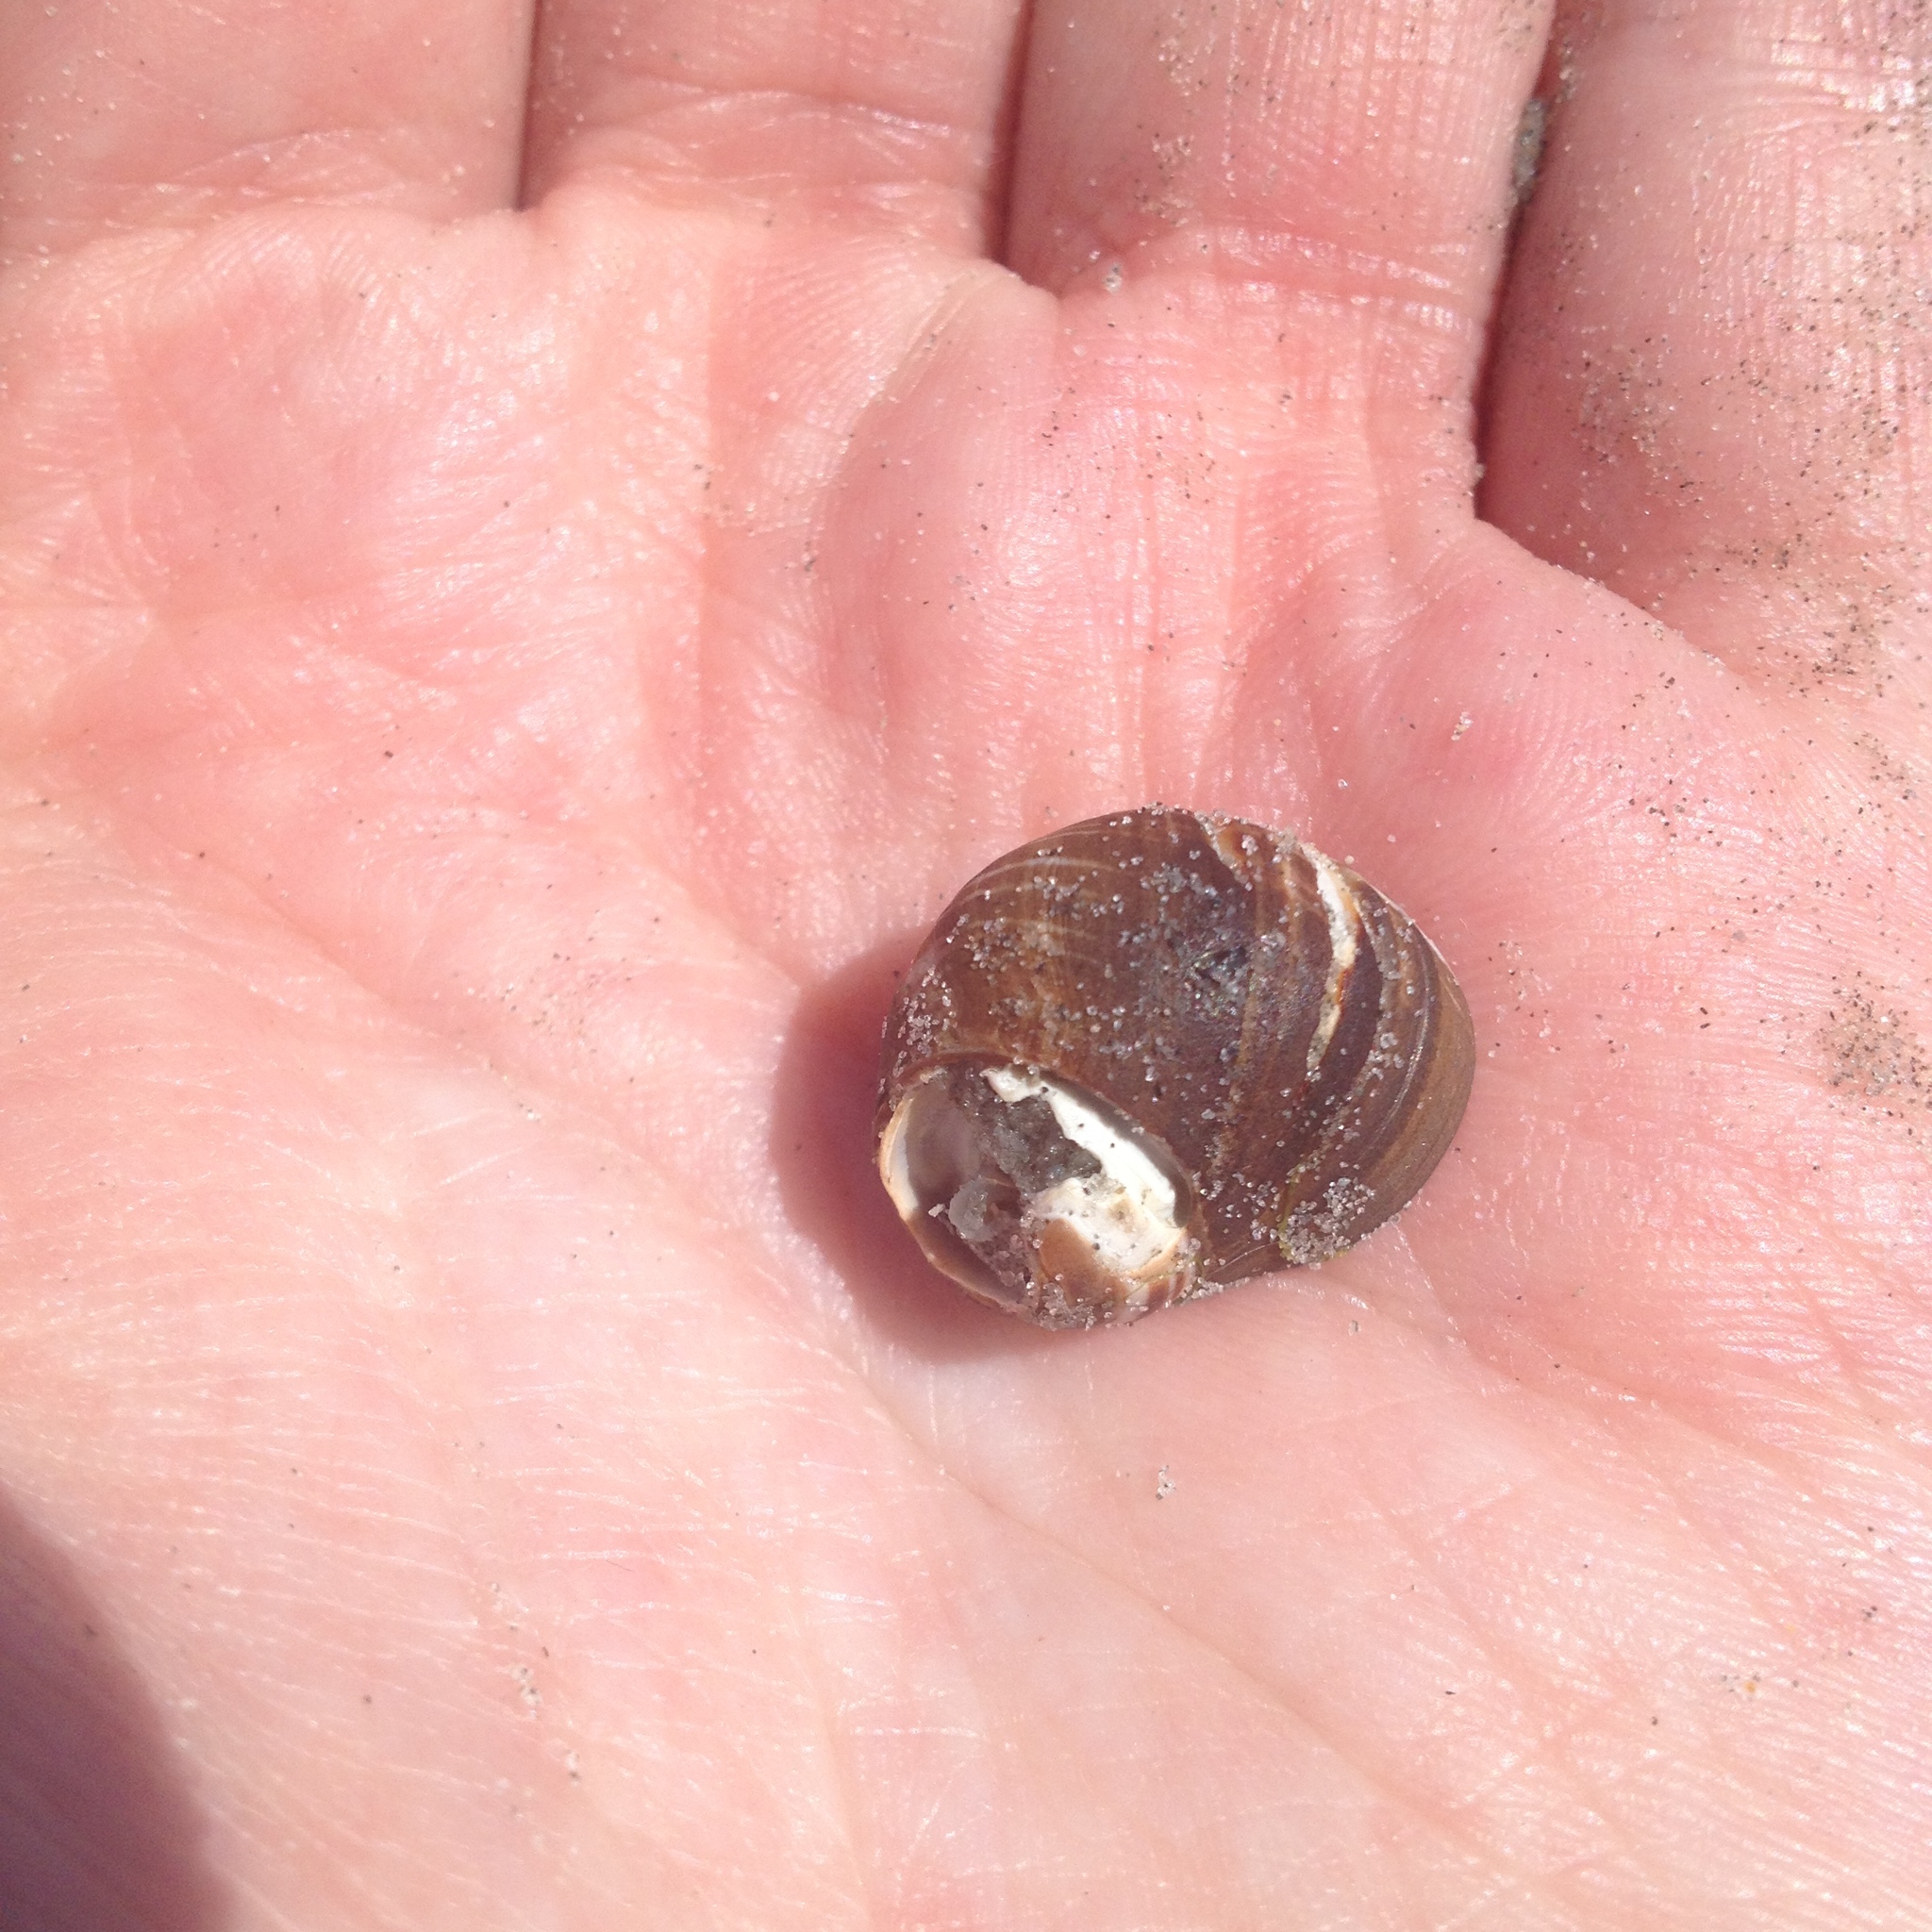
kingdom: Animalia
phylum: Mollusca
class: Gastropoda
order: Littorinimorpha
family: Littorinidae
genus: Littorina
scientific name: Littorina littorea
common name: Common periwinkle
